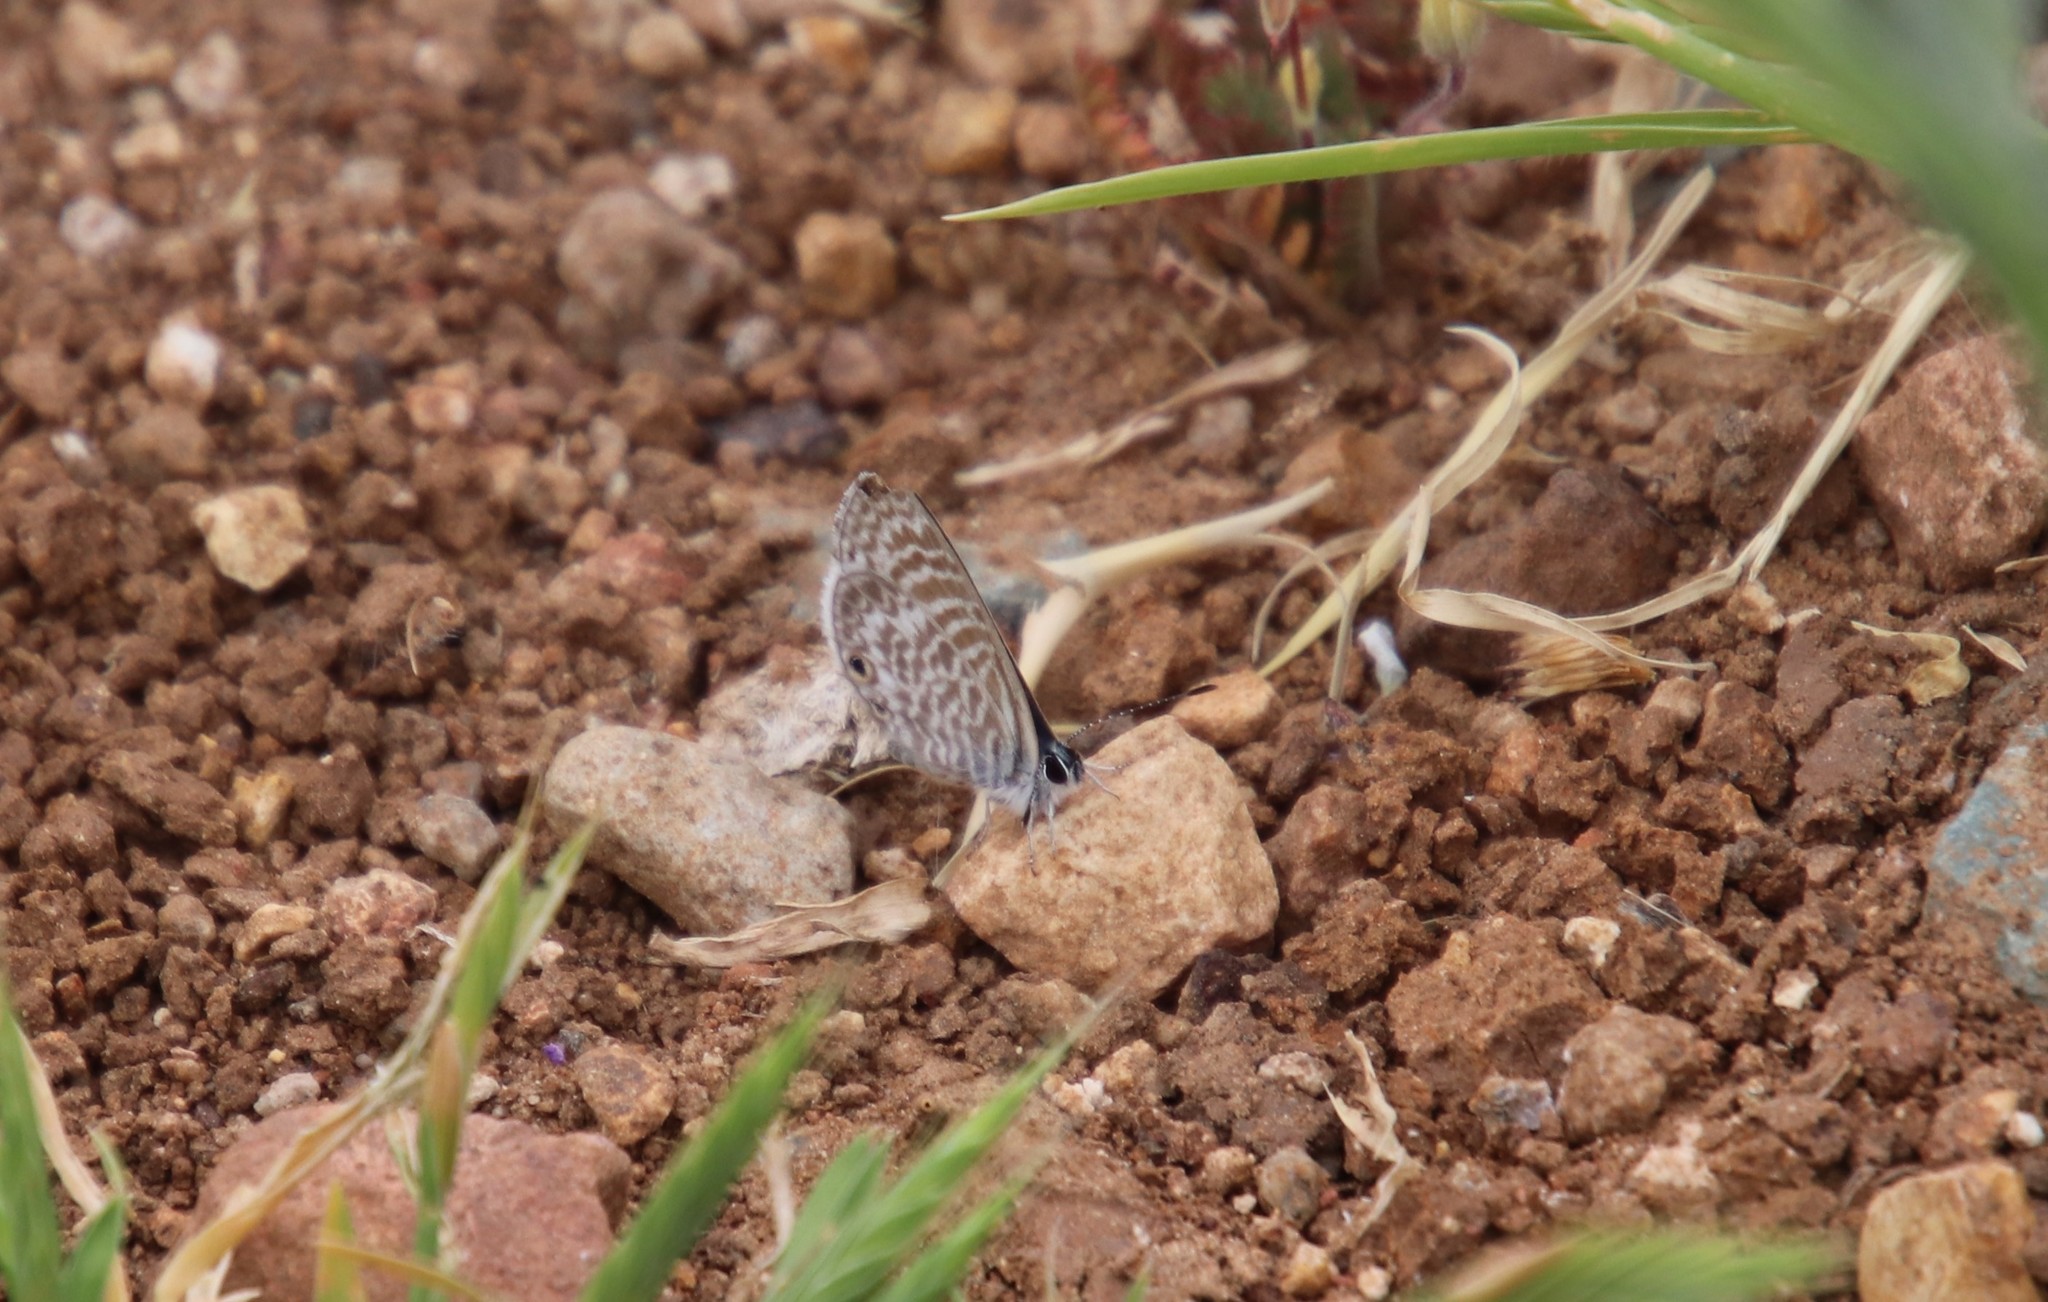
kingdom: Animalia
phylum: Arthropoda
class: Insecta
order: Lepidoptera
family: Lycaenidae
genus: Leptotes
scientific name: Leptotes marina
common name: Marine blue
